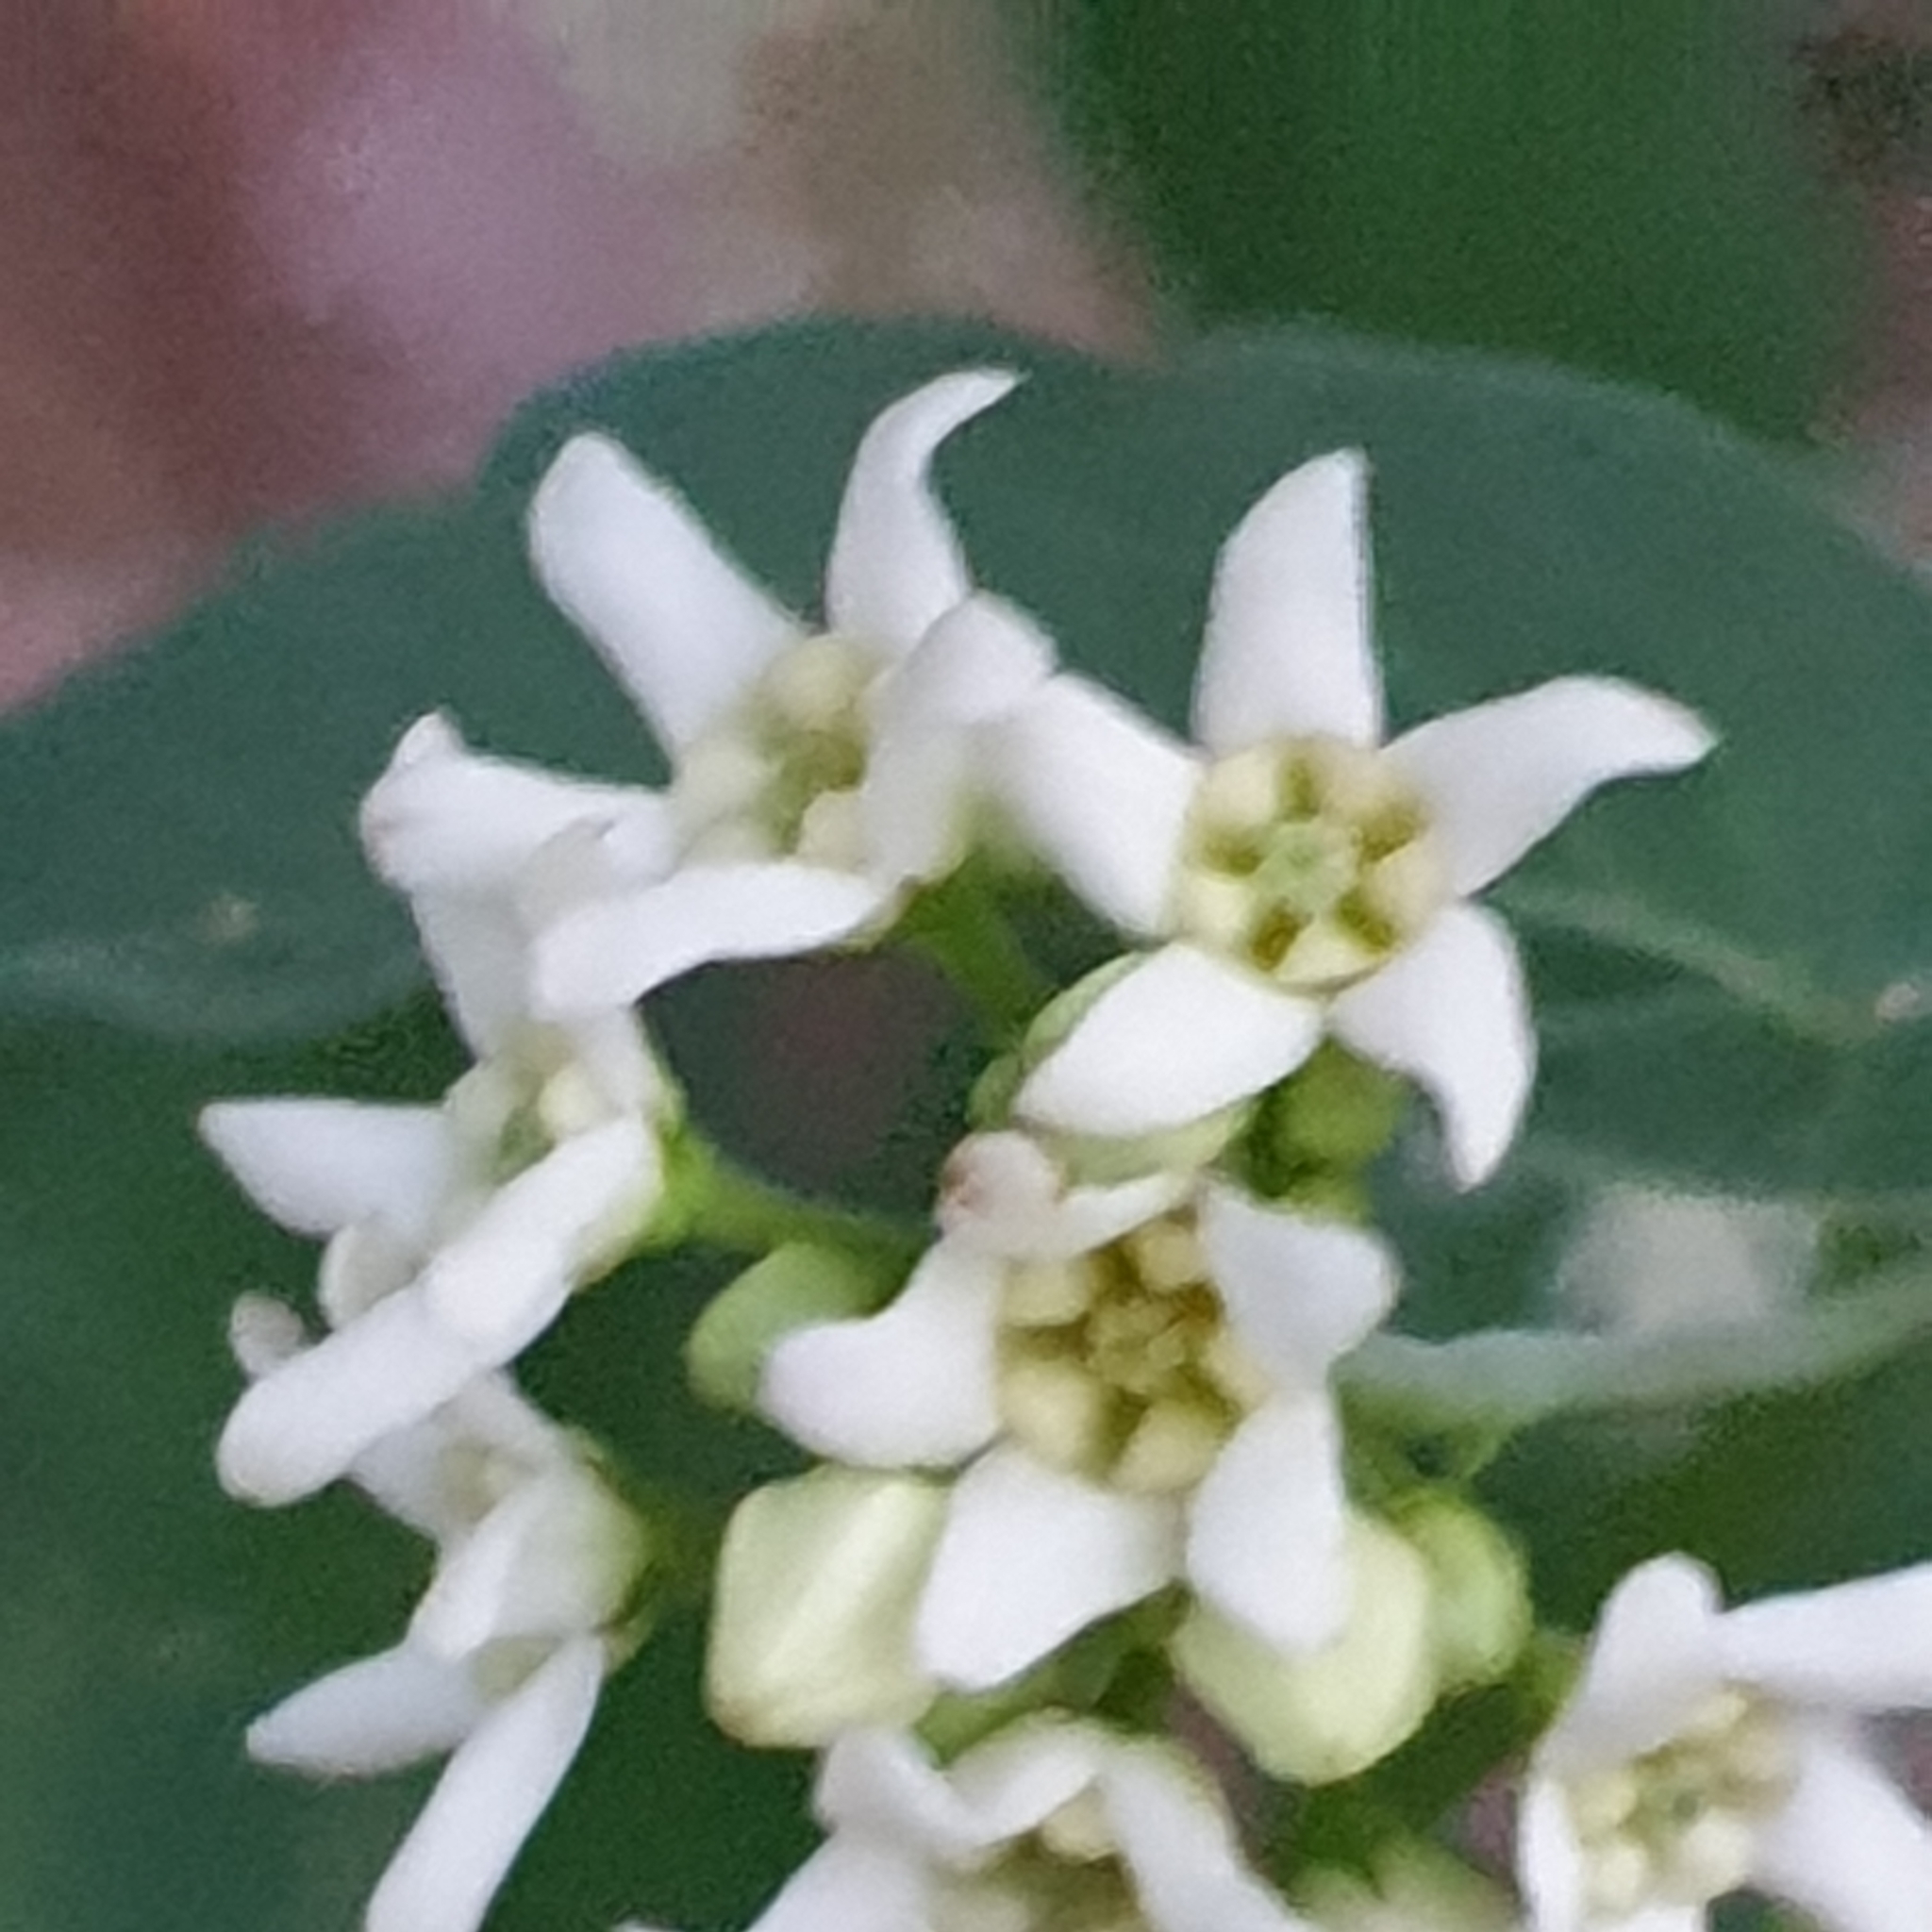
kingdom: Plantae
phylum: Tracheophyta
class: Magnoliopsida
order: Gentianales
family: Apocynaceae
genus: Vincetoxicum
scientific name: Vincetoxicum hirundinaria
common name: White swallowwort
